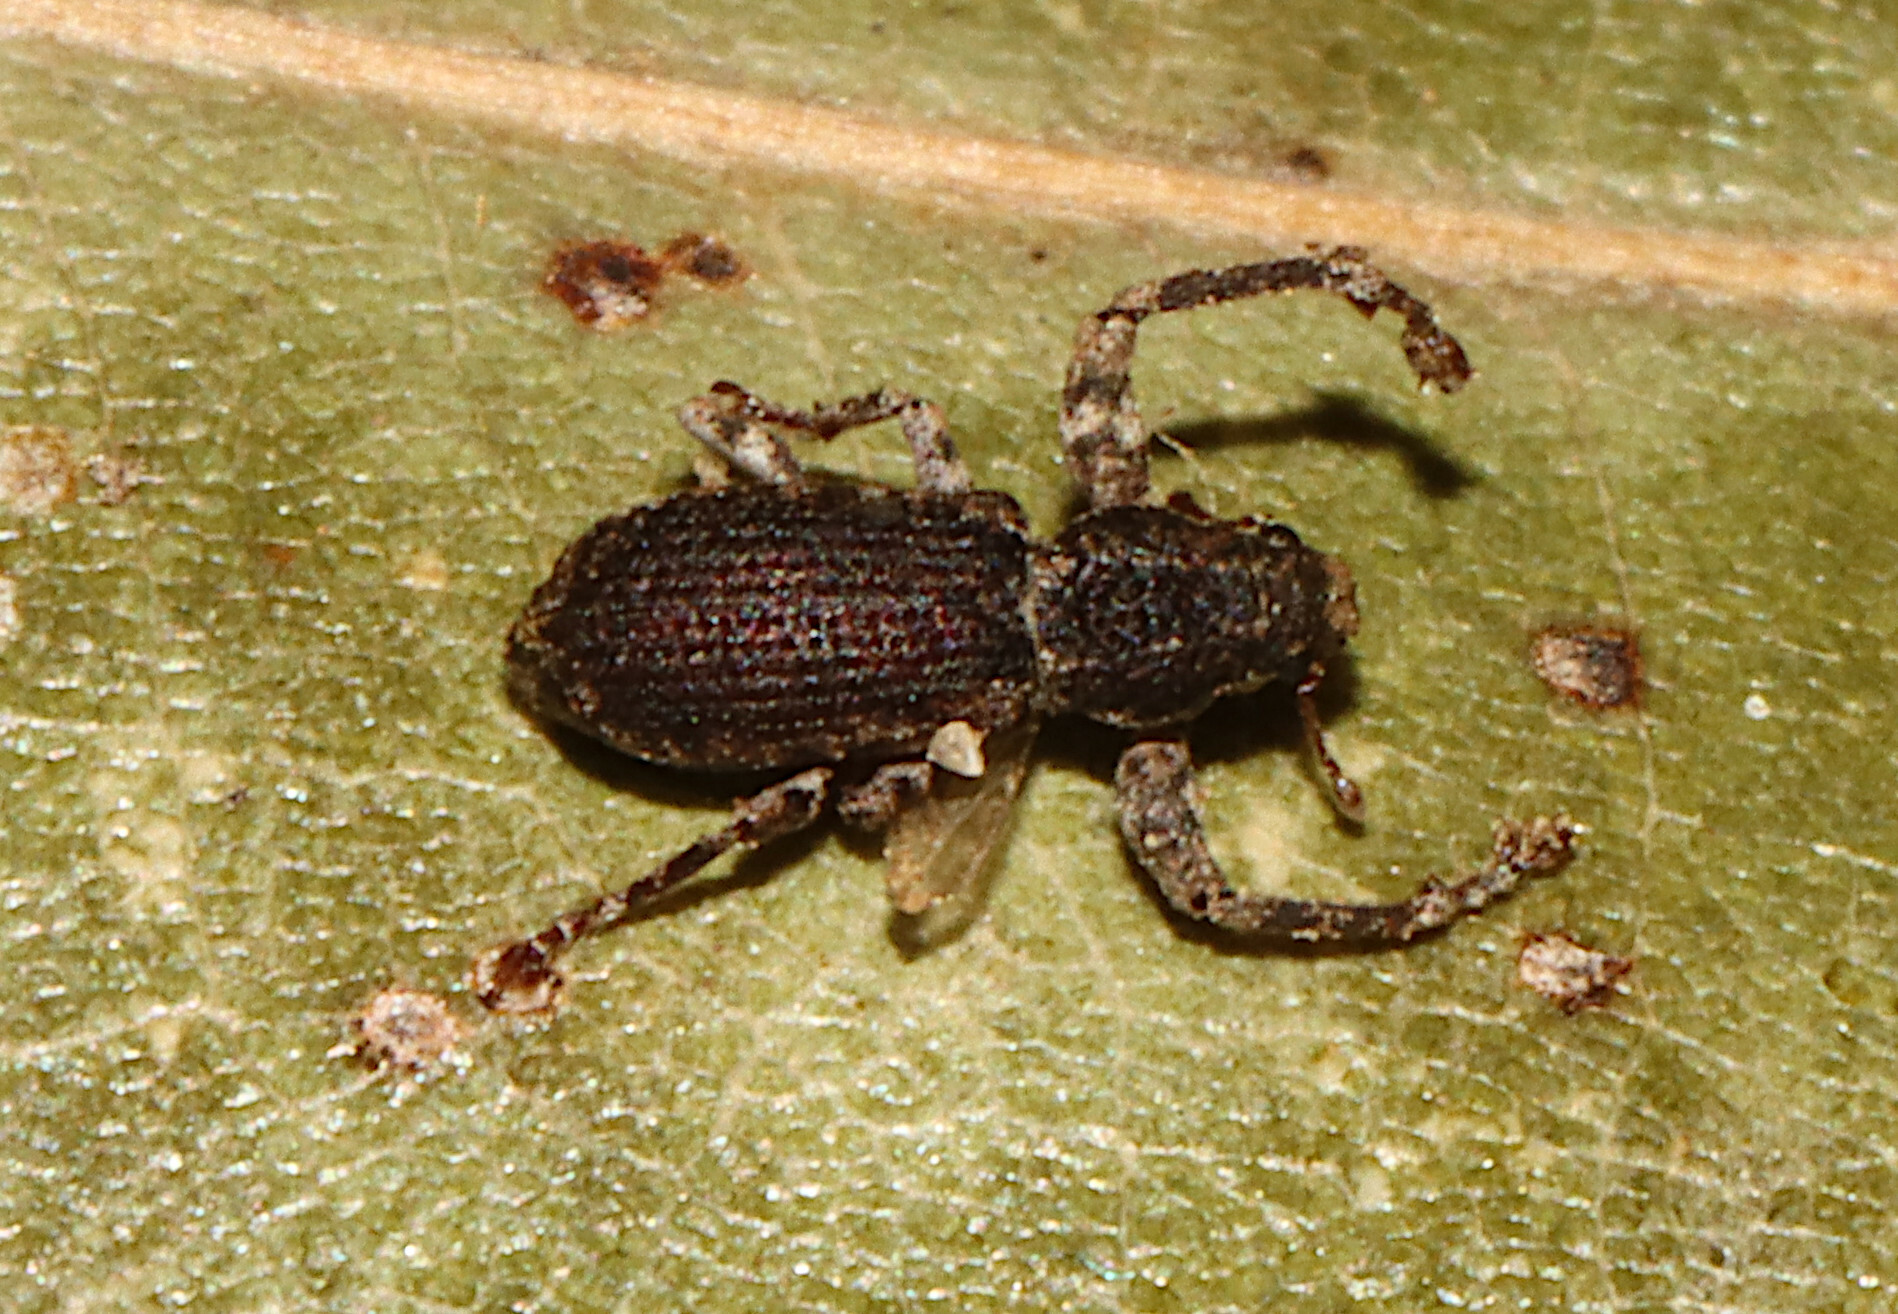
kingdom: Animalia
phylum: Arthropoda
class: Insecta
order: Coleoptera
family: Curculionidae
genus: Pandeleteius
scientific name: Pandeleteius hilaris
